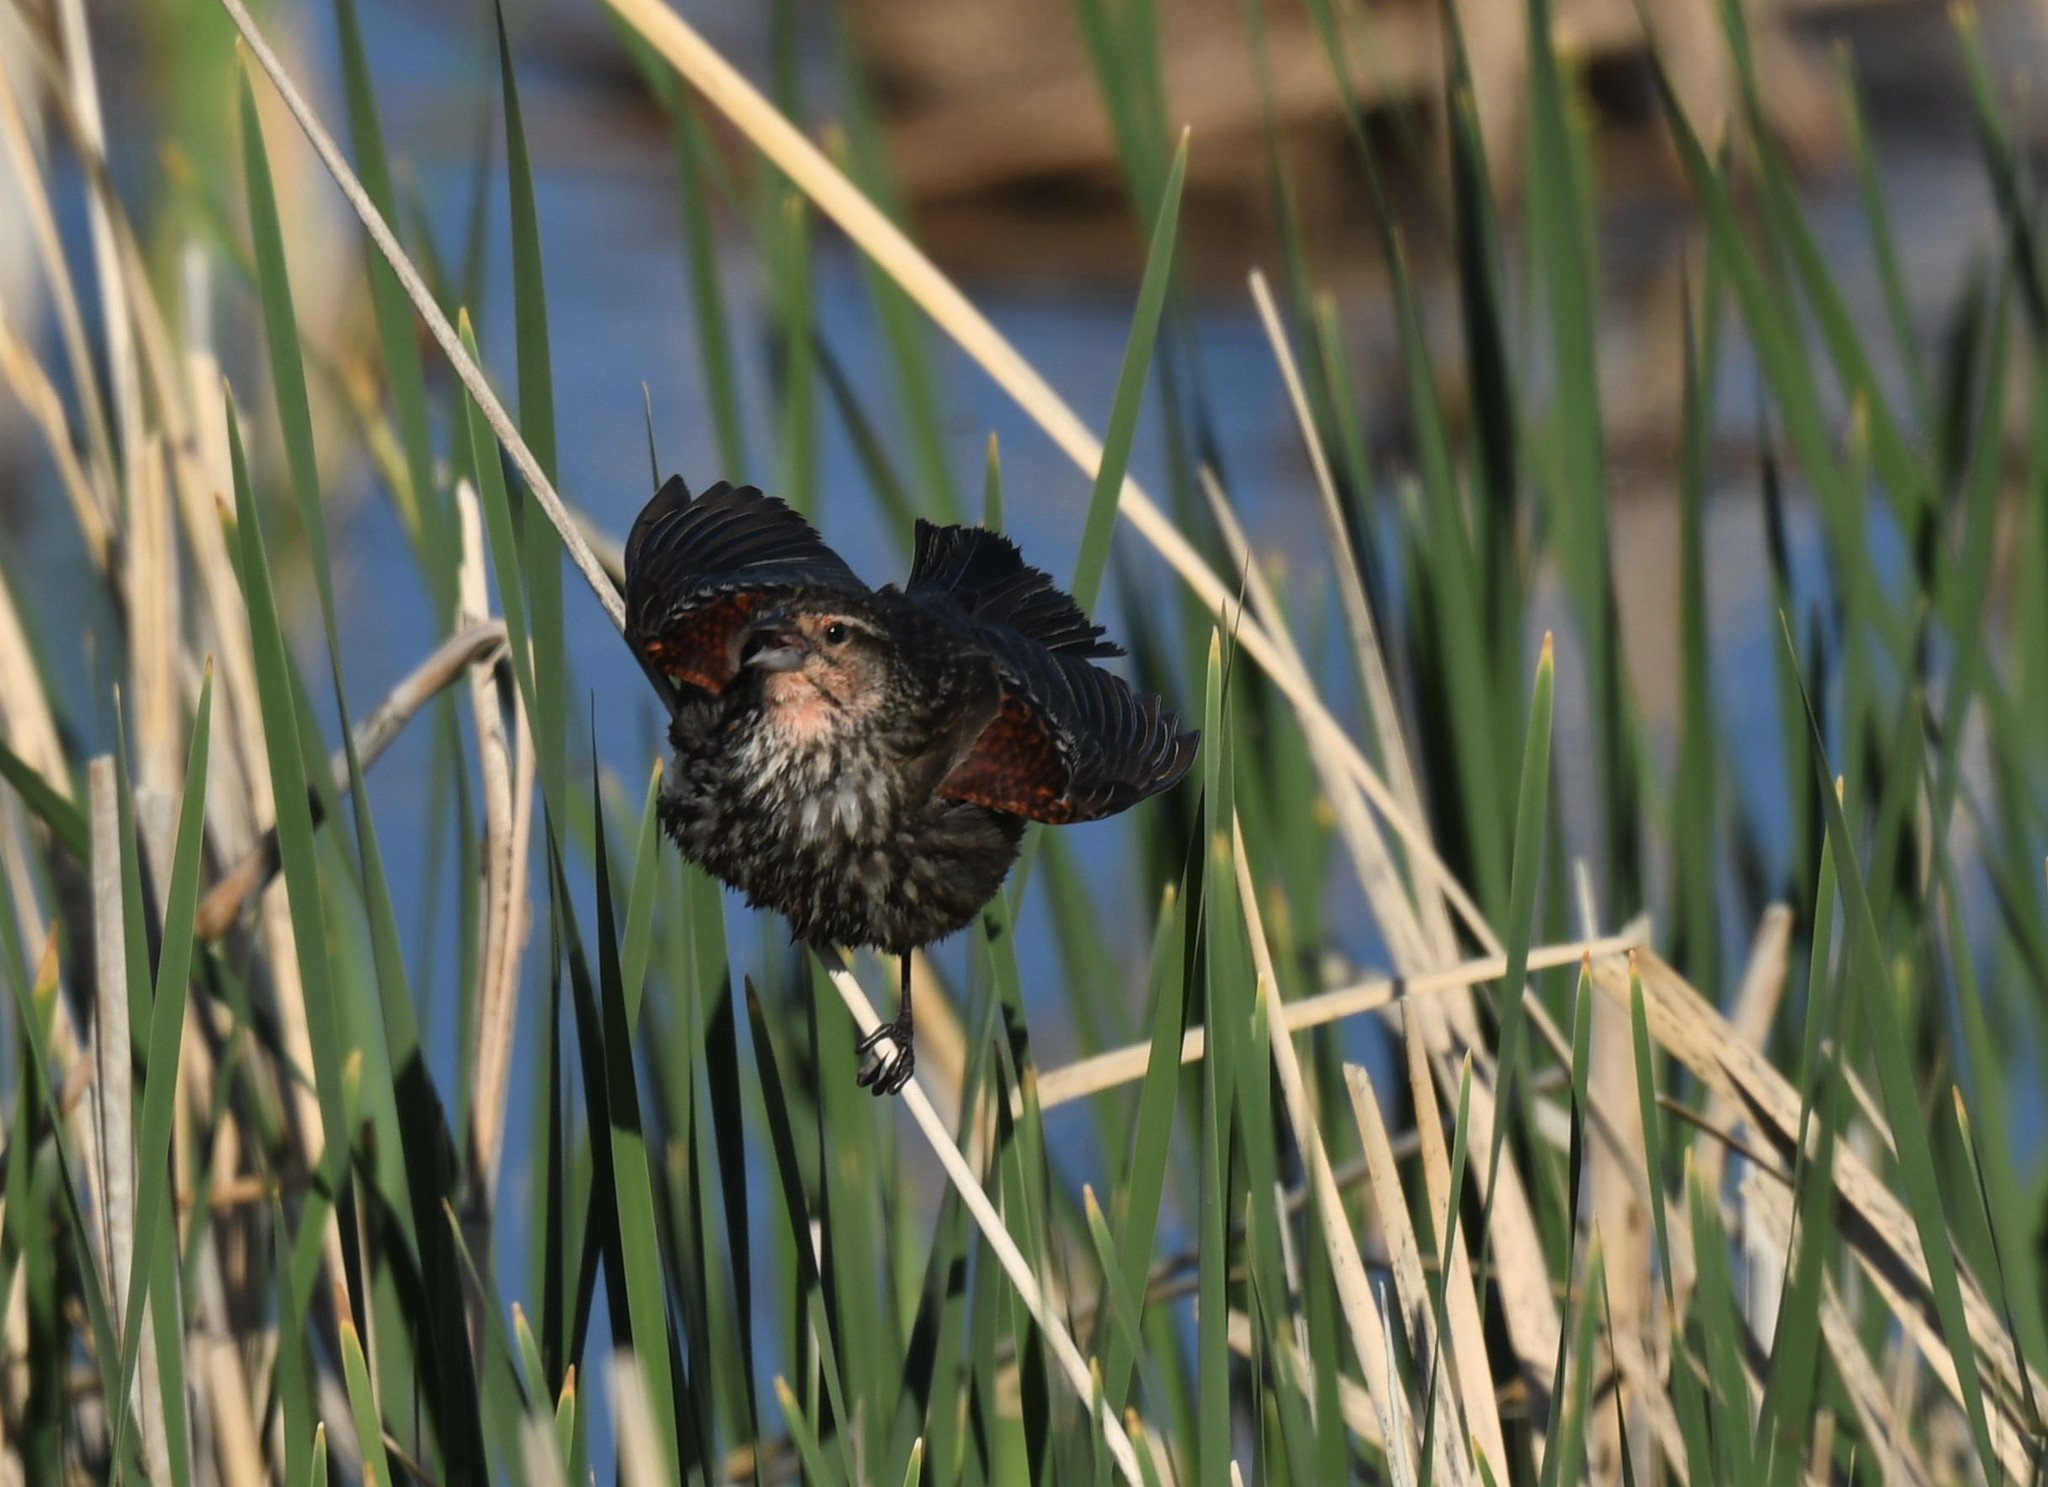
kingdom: Animalia
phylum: Chordata
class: Aves
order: Passeriformes
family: Icteridae
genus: Agelaius
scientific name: Agelaius phoeniceus
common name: Red-winged blackbird
